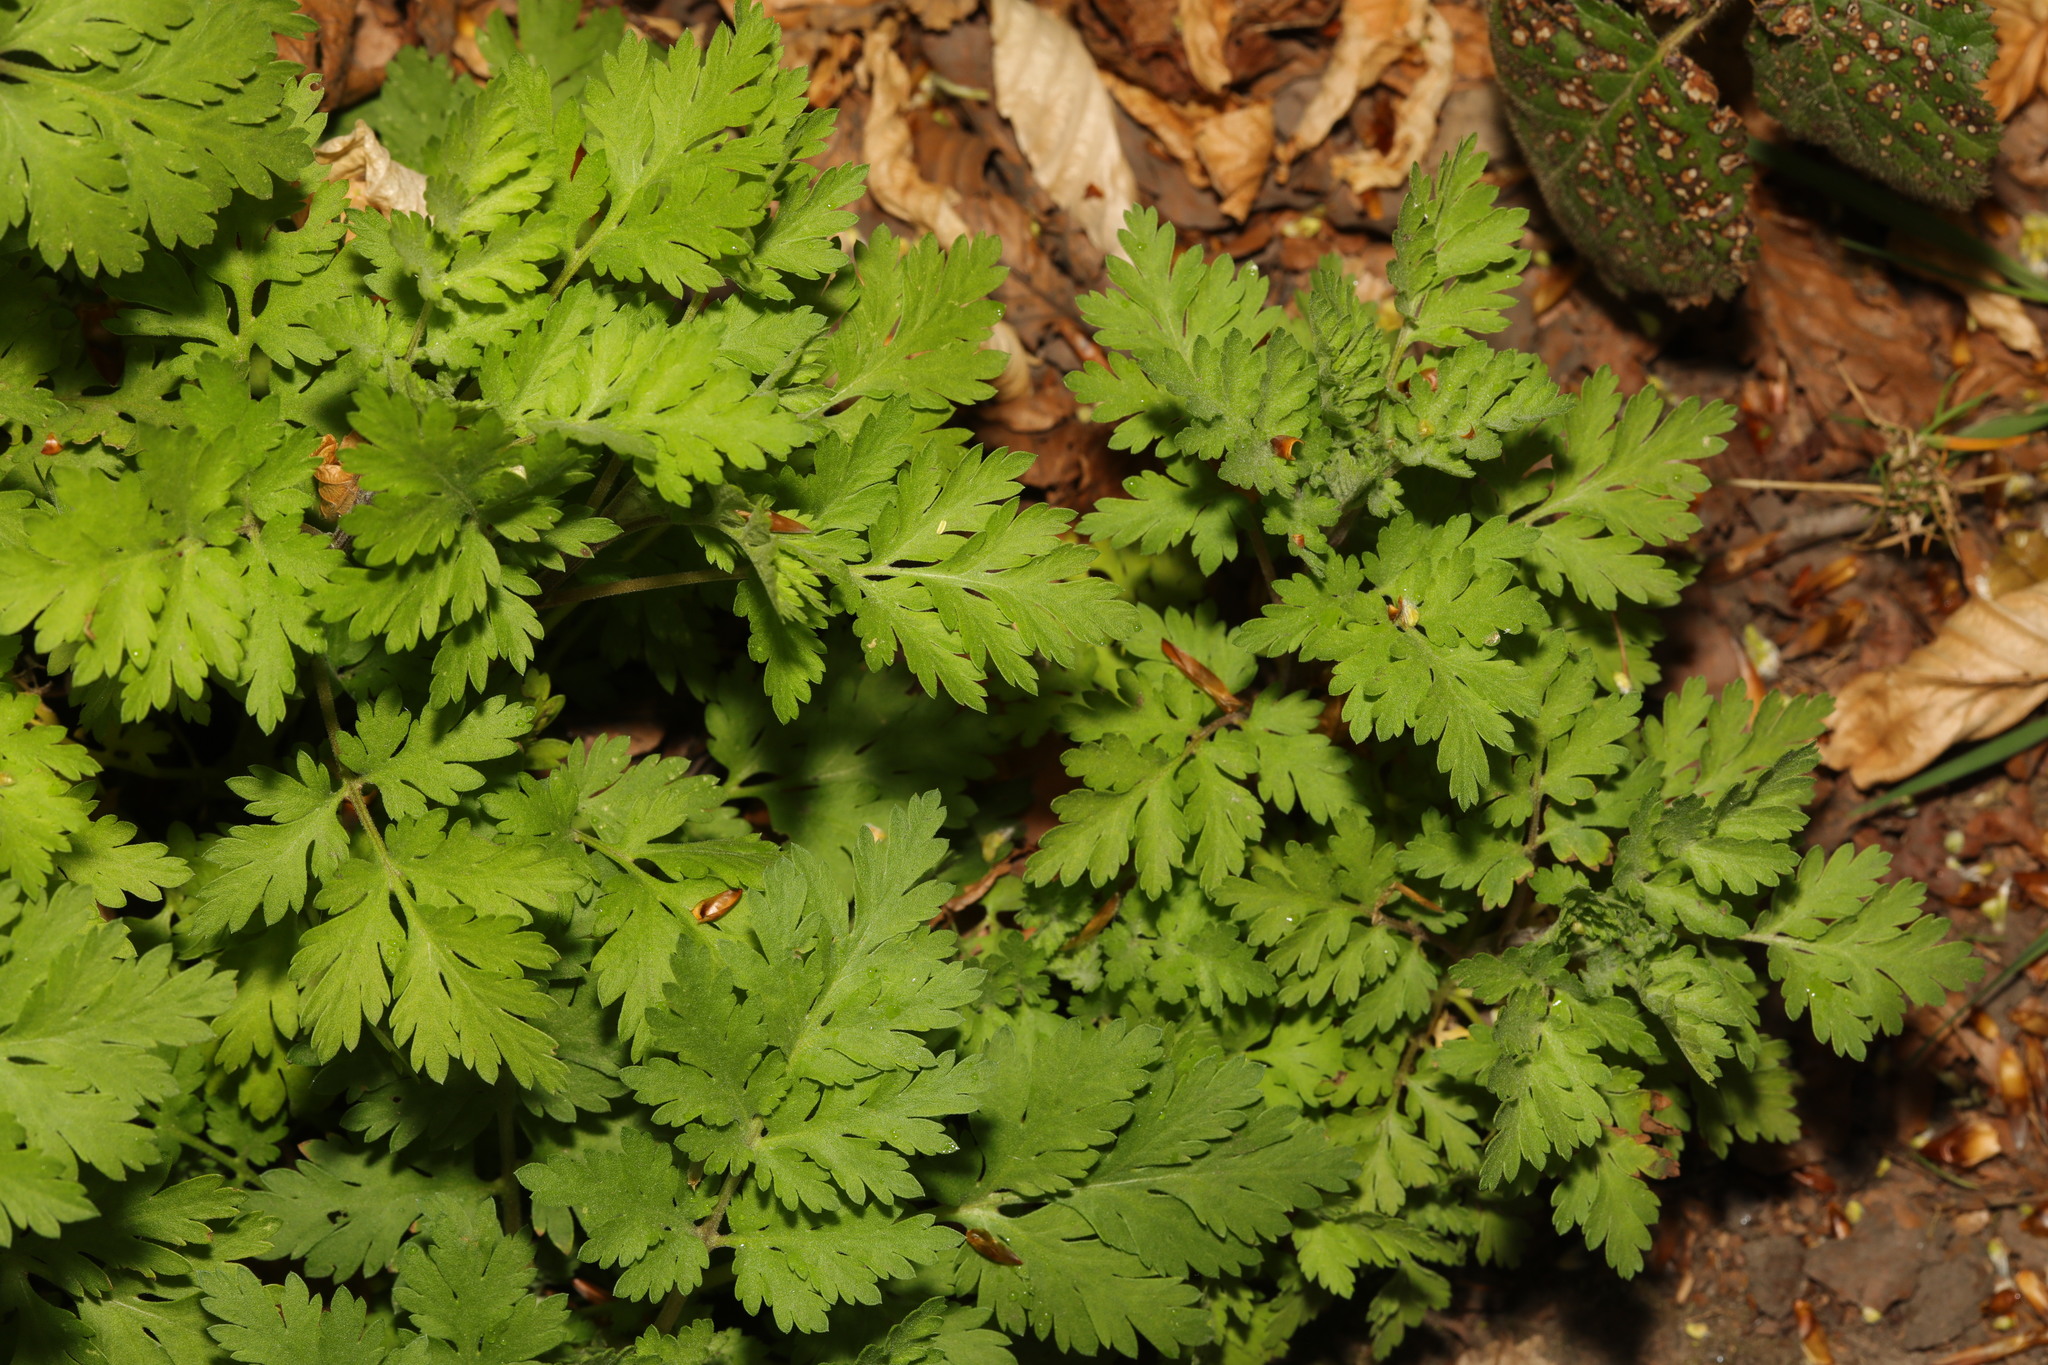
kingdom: Plantae
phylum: Tracheophyta
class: Magnoliopsida
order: Asterales
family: Asteraceae
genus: Tanacetum
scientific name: Tanacetum parthenium
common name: Feverfew
